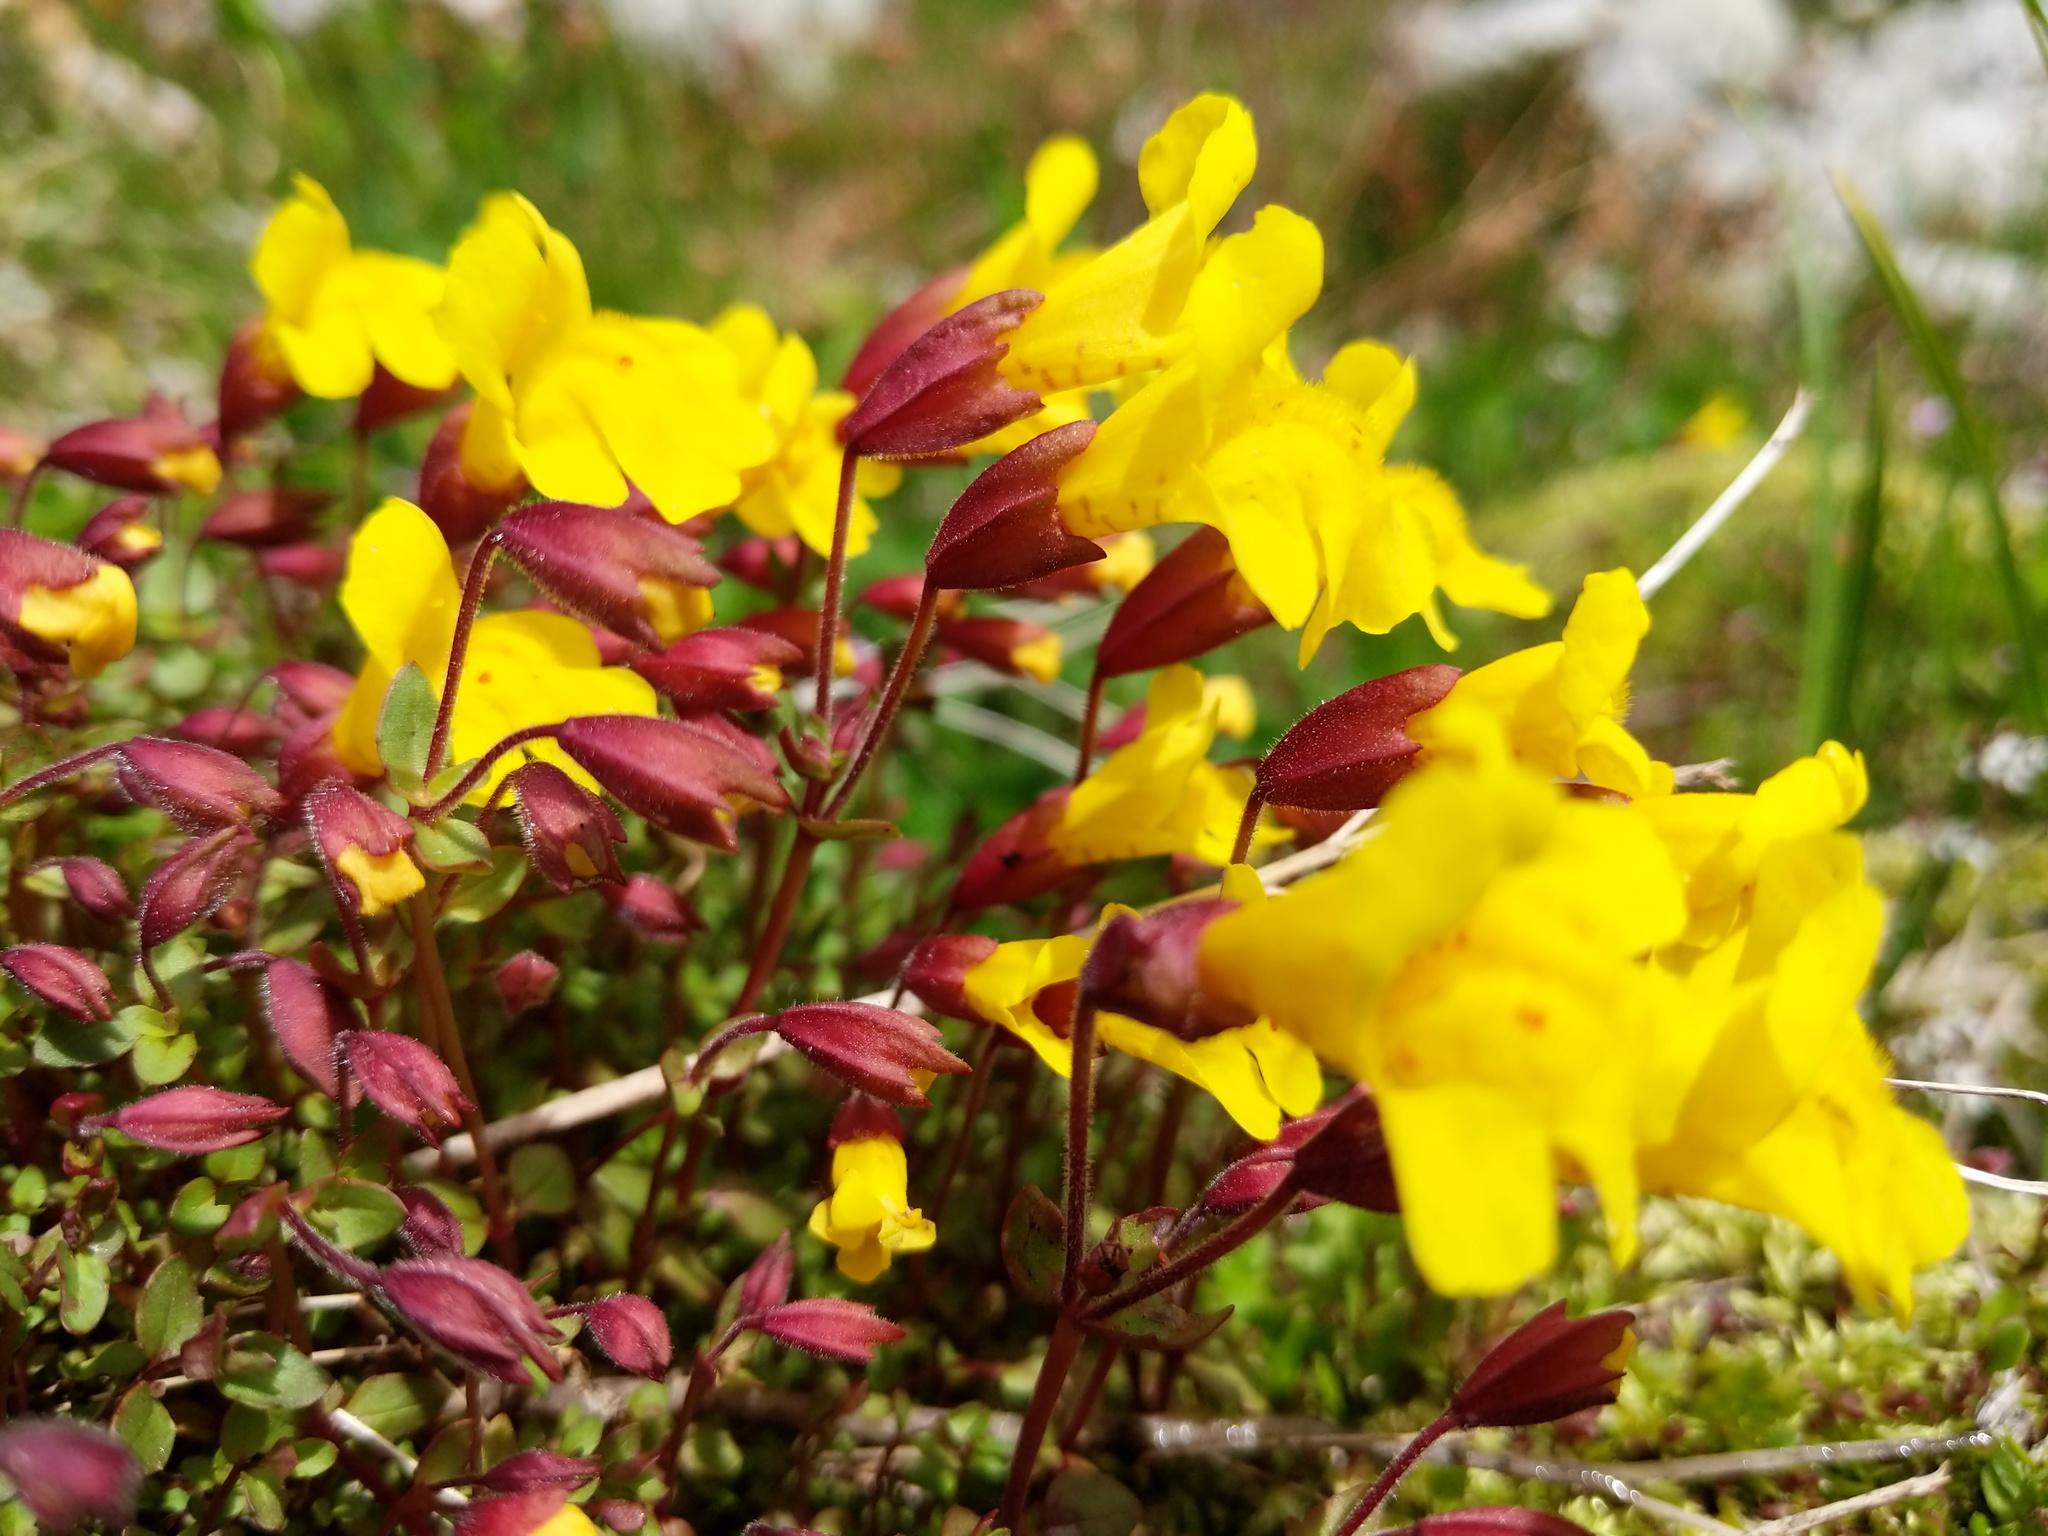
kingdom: Plantae
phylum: Tracheophyta
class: Magnoliopsida
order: Lamiales
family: Phrymaceae
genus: Erythranthe
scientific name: Erythranthe caespitosa
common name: Subalpine monkeyflower
